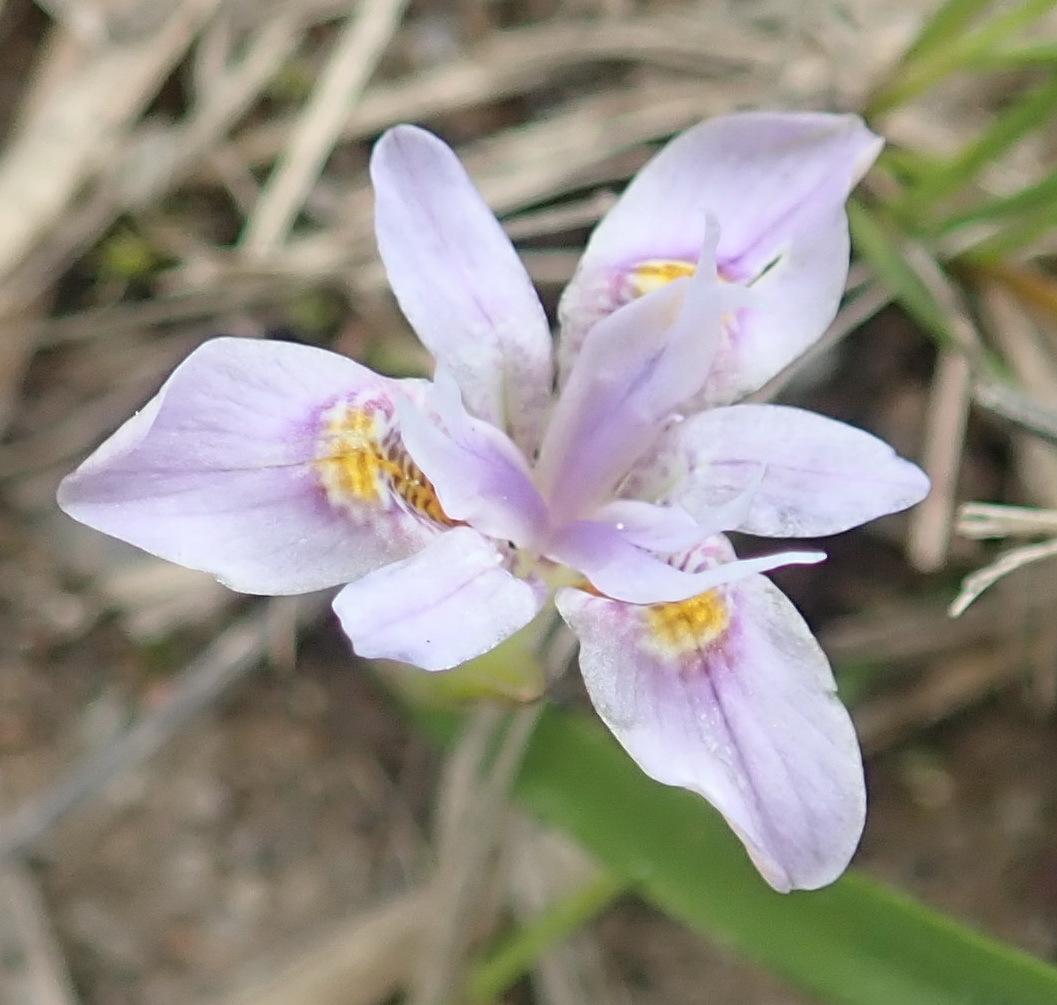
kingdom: Plantae
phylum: Tracheophyta
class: Liliopsida
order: Asparagales
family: Iridaceae
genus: Moraea
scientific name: Moraea setifolia
